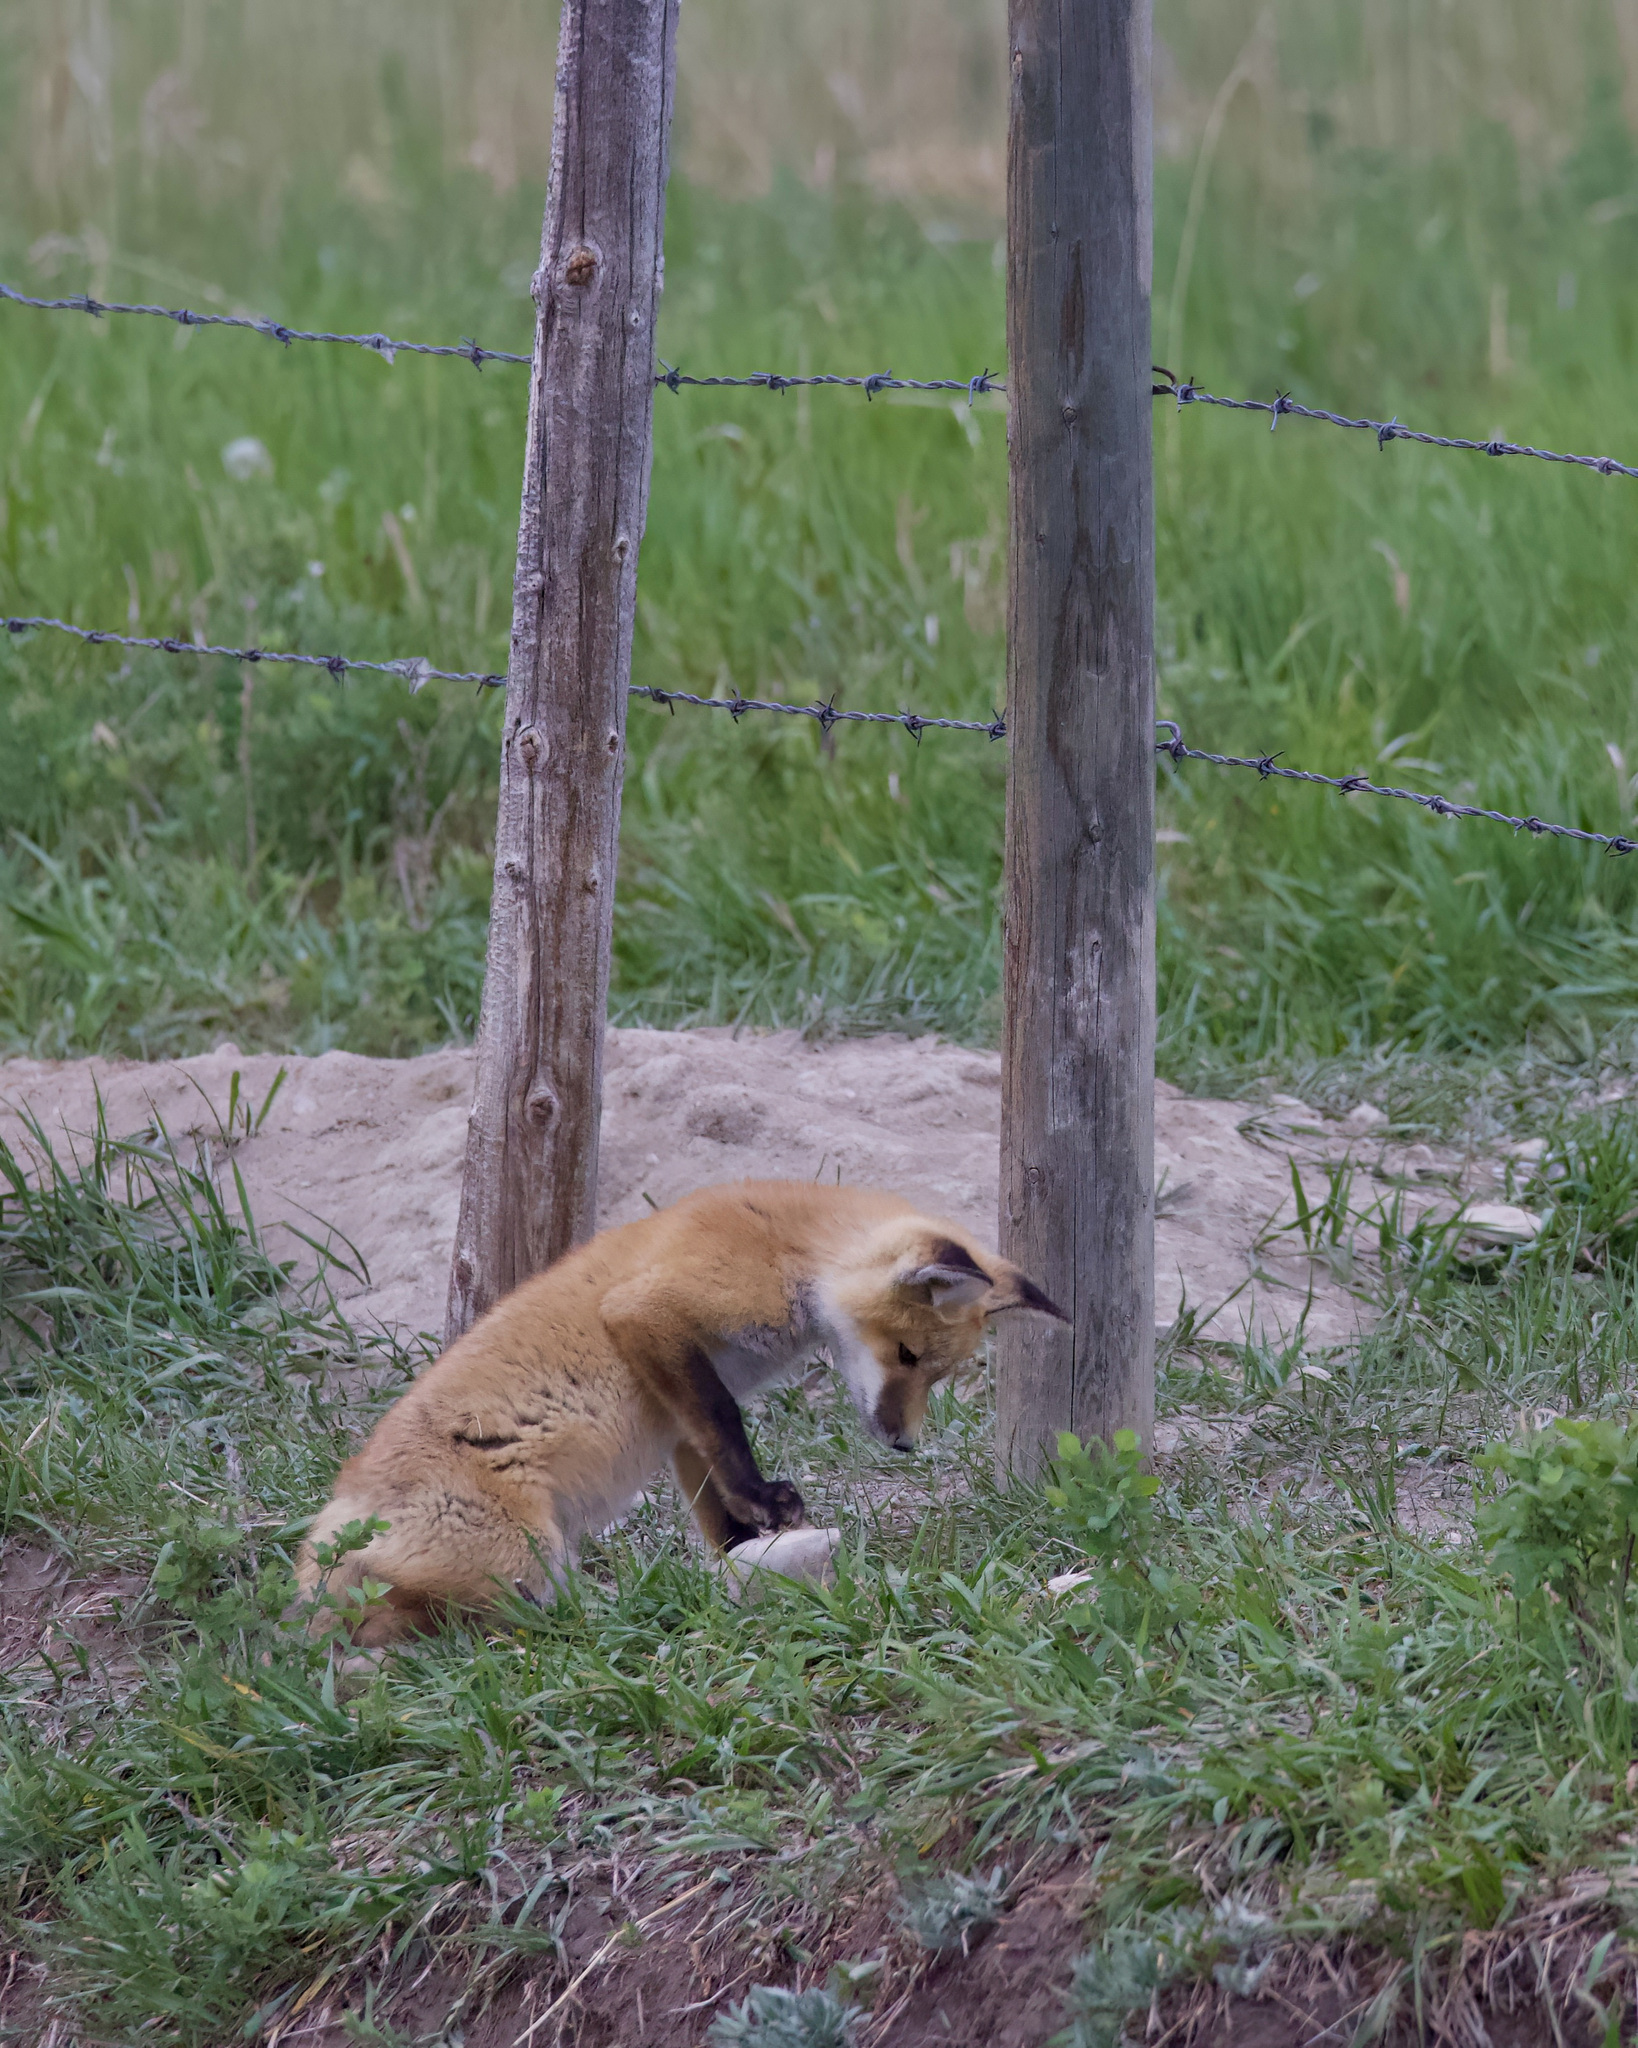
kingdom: Animalia
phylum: Chordata
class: Mammalia
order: Carnivora
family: Canidae
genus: Vulpes
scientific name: Vulpes vulpes
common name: Red fox
